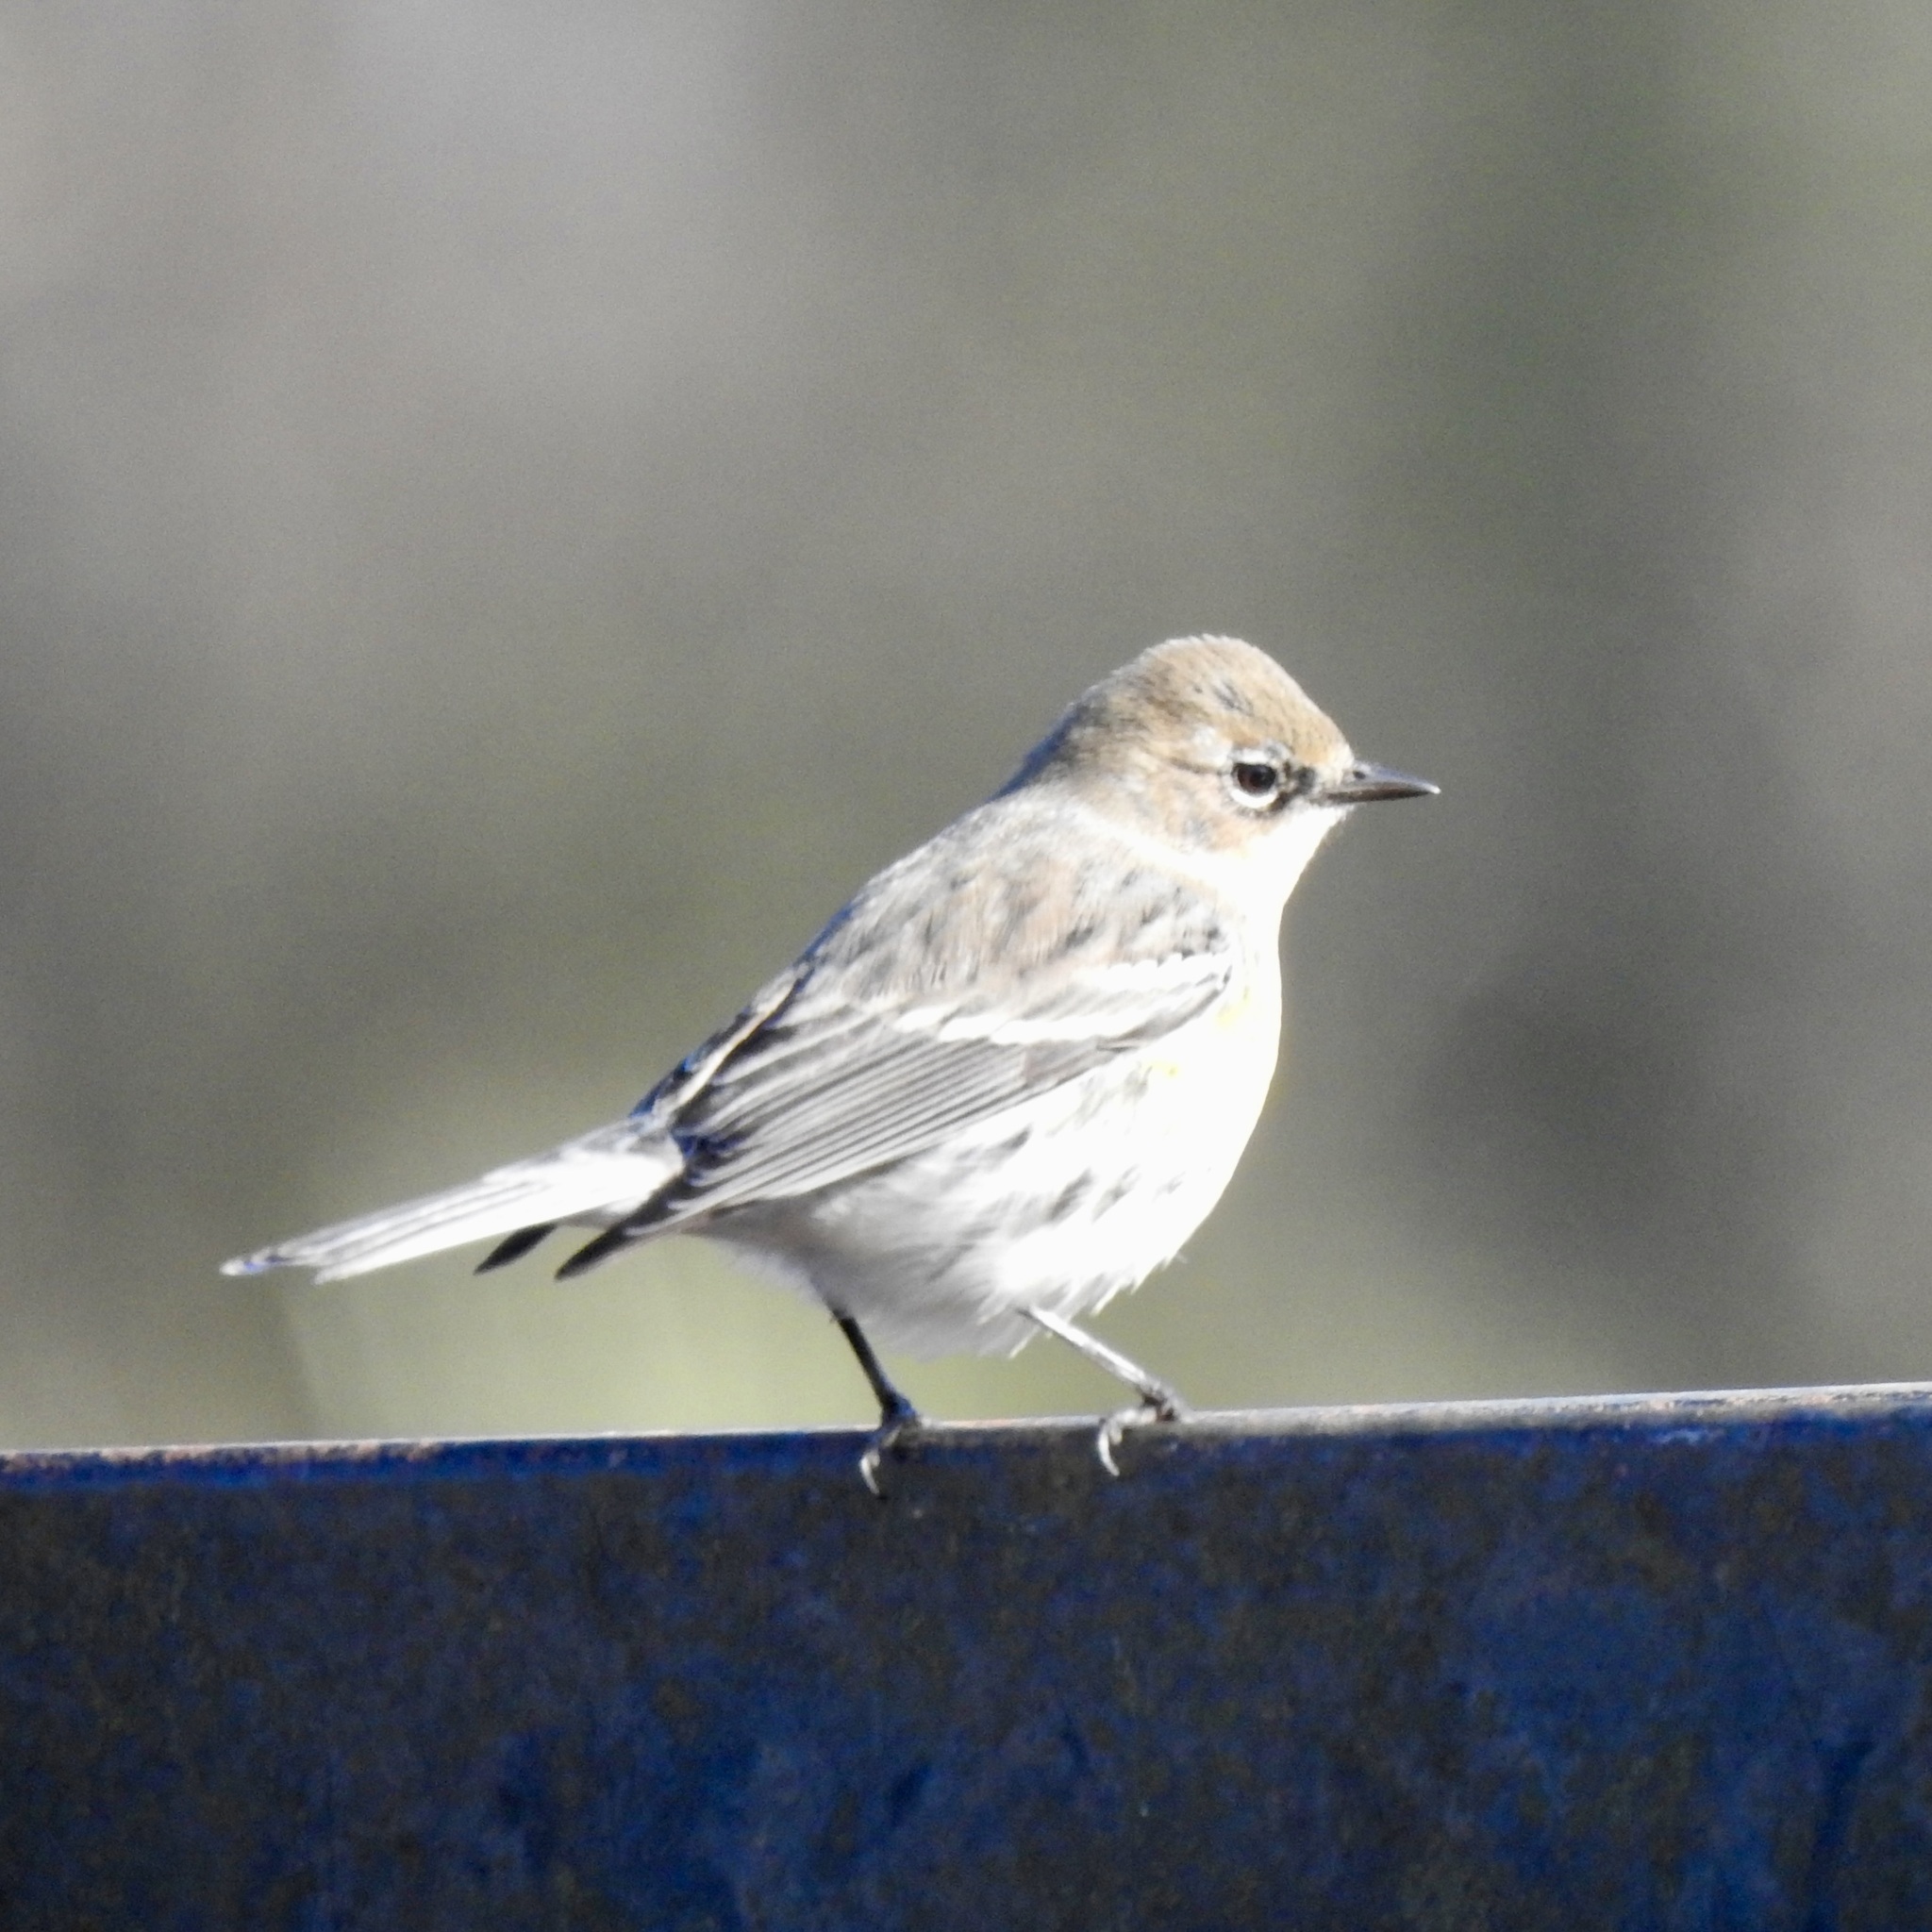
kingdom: Animalia
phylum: Chordata
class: Aves
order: Passeriformes
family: Parulidae
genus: Setophaga
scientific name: Setophaga coronata
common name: Myrtle warbler
